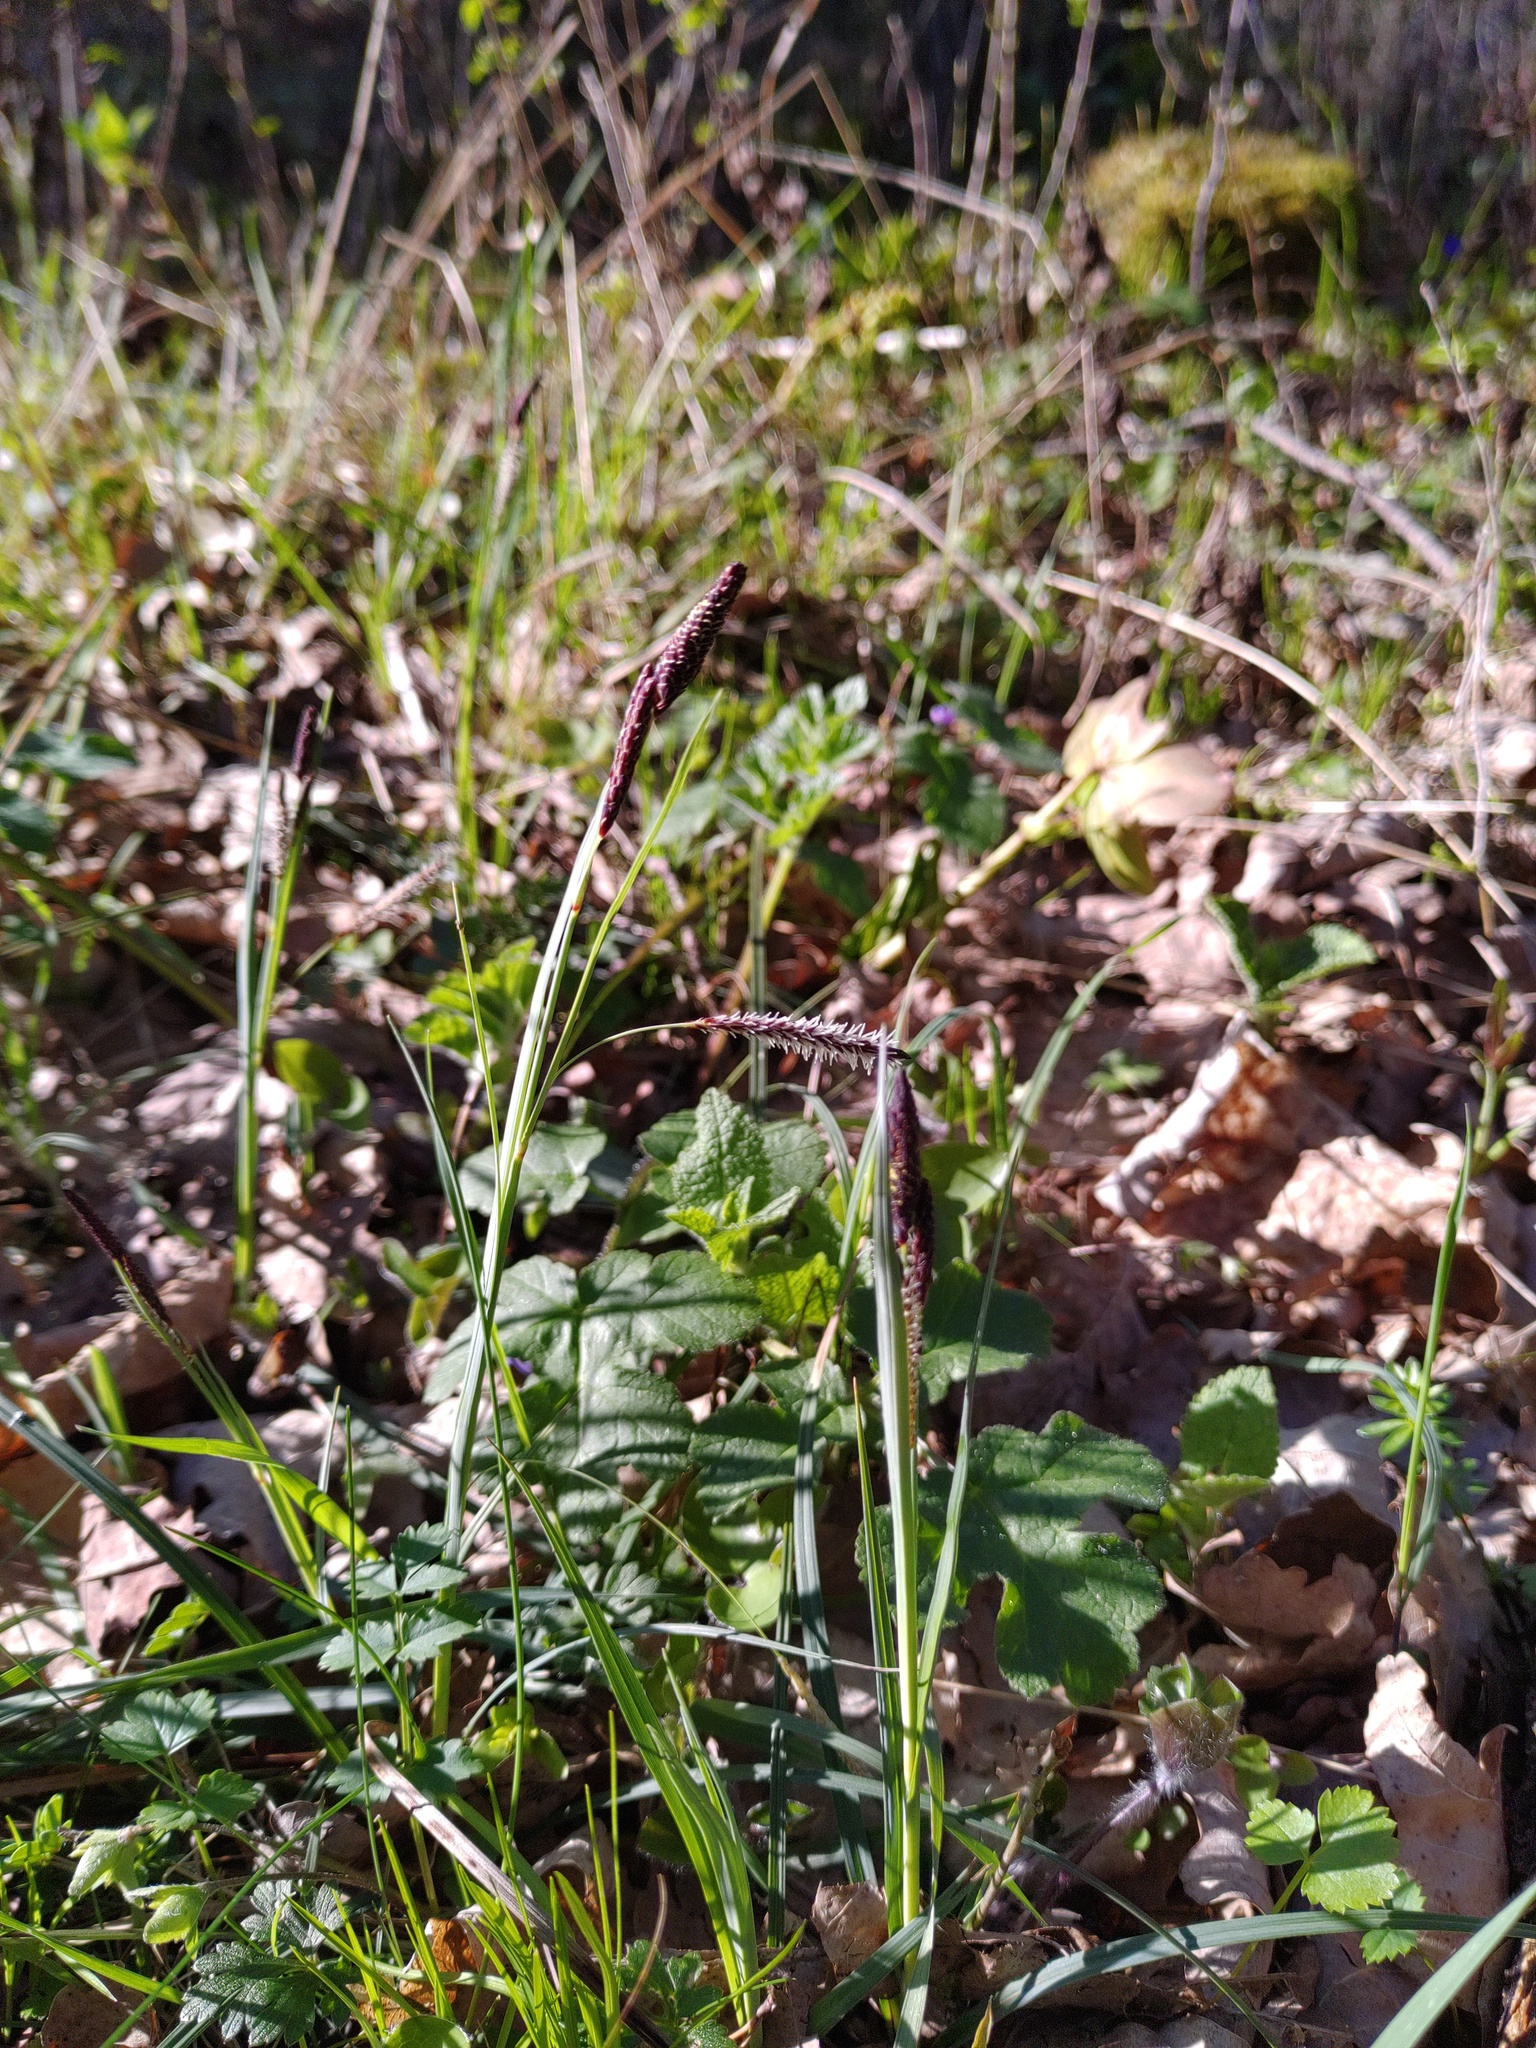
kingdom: Plantae
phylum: Tracheophyta
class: Liliopsida
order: Poales
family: Cyperaceae
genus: Carex
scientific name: Carex flacca
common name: Glaucous sedge
